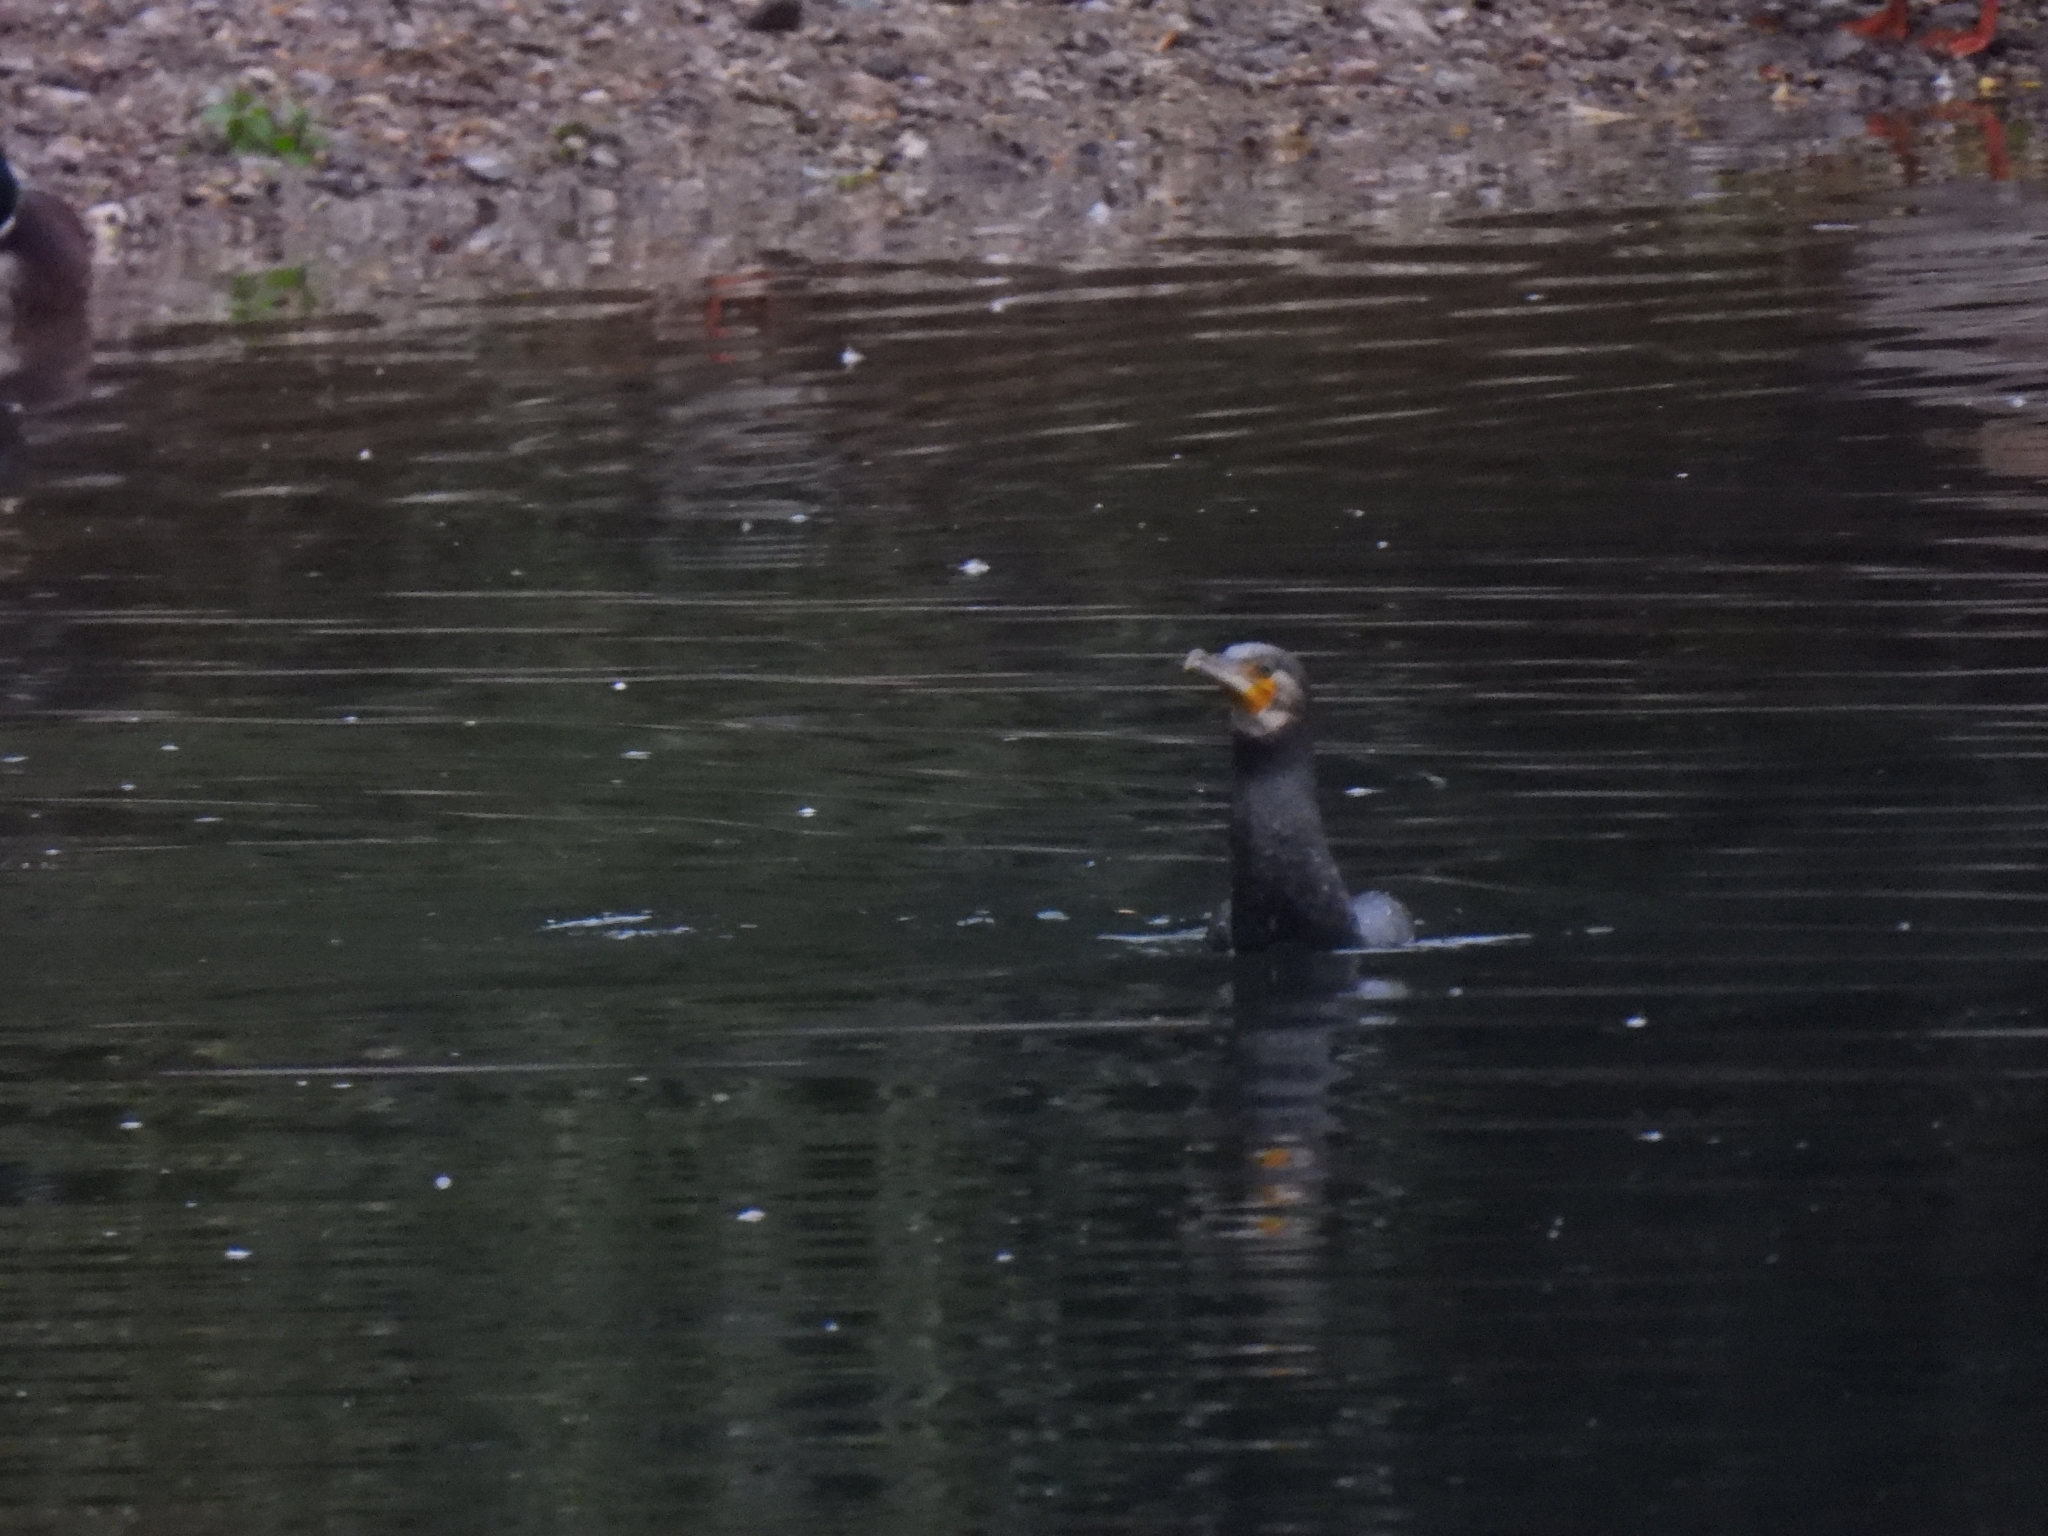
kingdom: Animalia
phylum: Chordata
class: Aves
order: Suliformes
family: Phalacrocoracidae
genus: Phalacrocorax
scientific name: Phalacrocorax carbo
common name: Great cormorant
